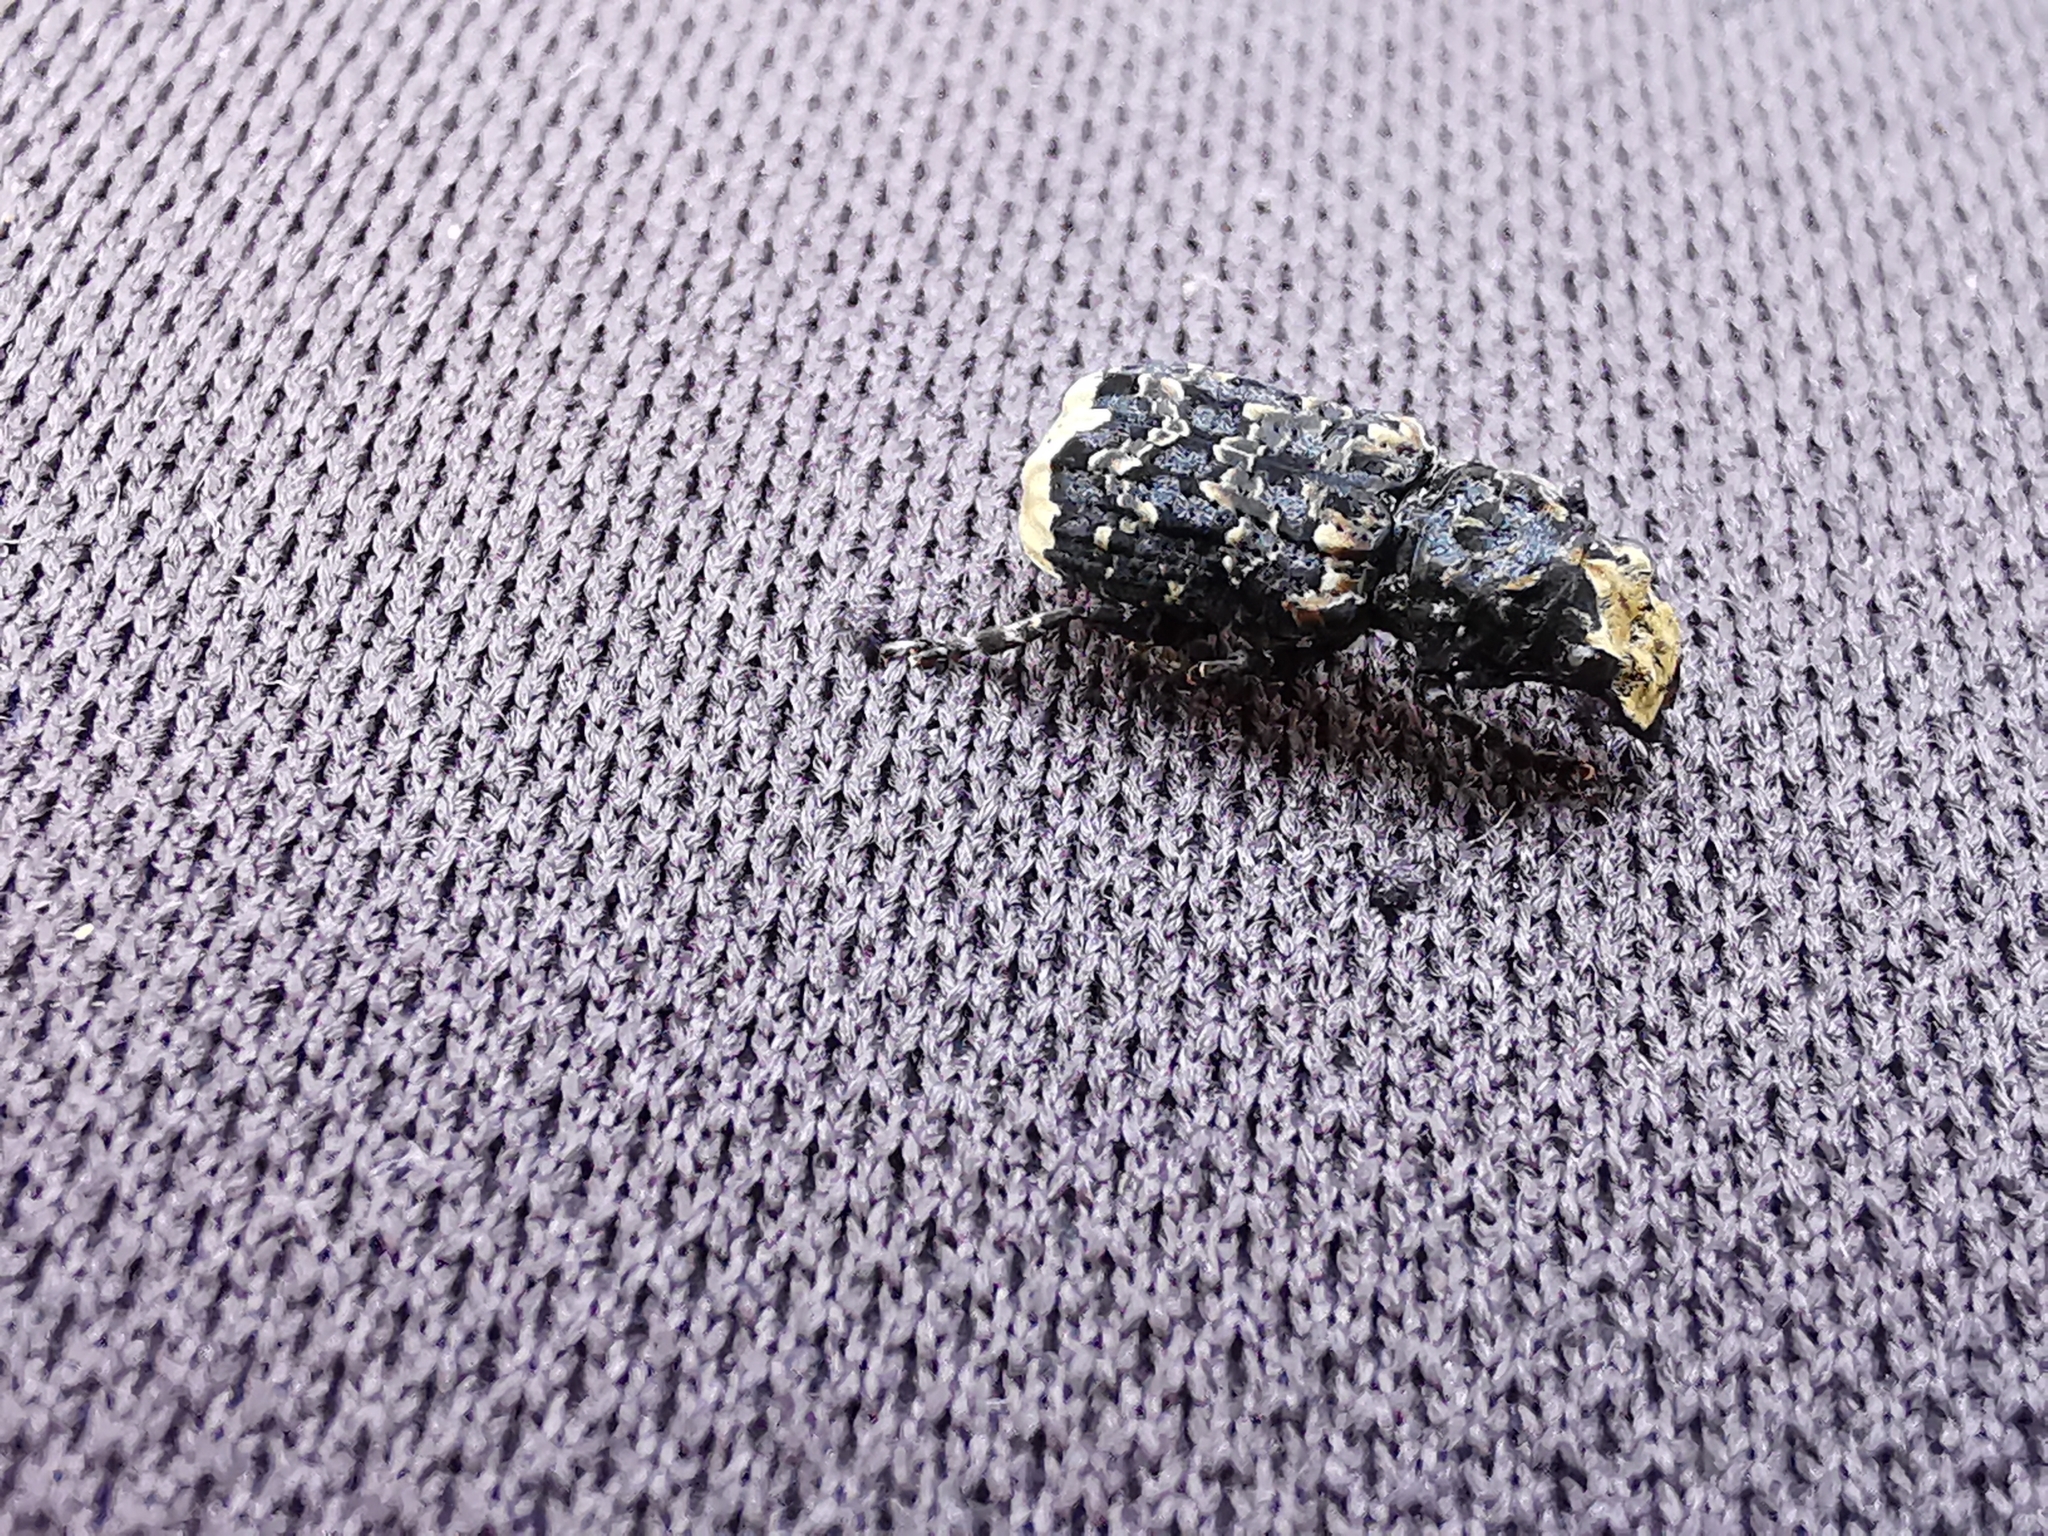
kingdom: Animalia
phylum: Arthropoda
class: Insecta
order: Coleoptera
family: Anthribidae
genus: Platyrhinus
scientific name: Platyrhinus resinosus
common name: Cramp-ball fungus weevil
